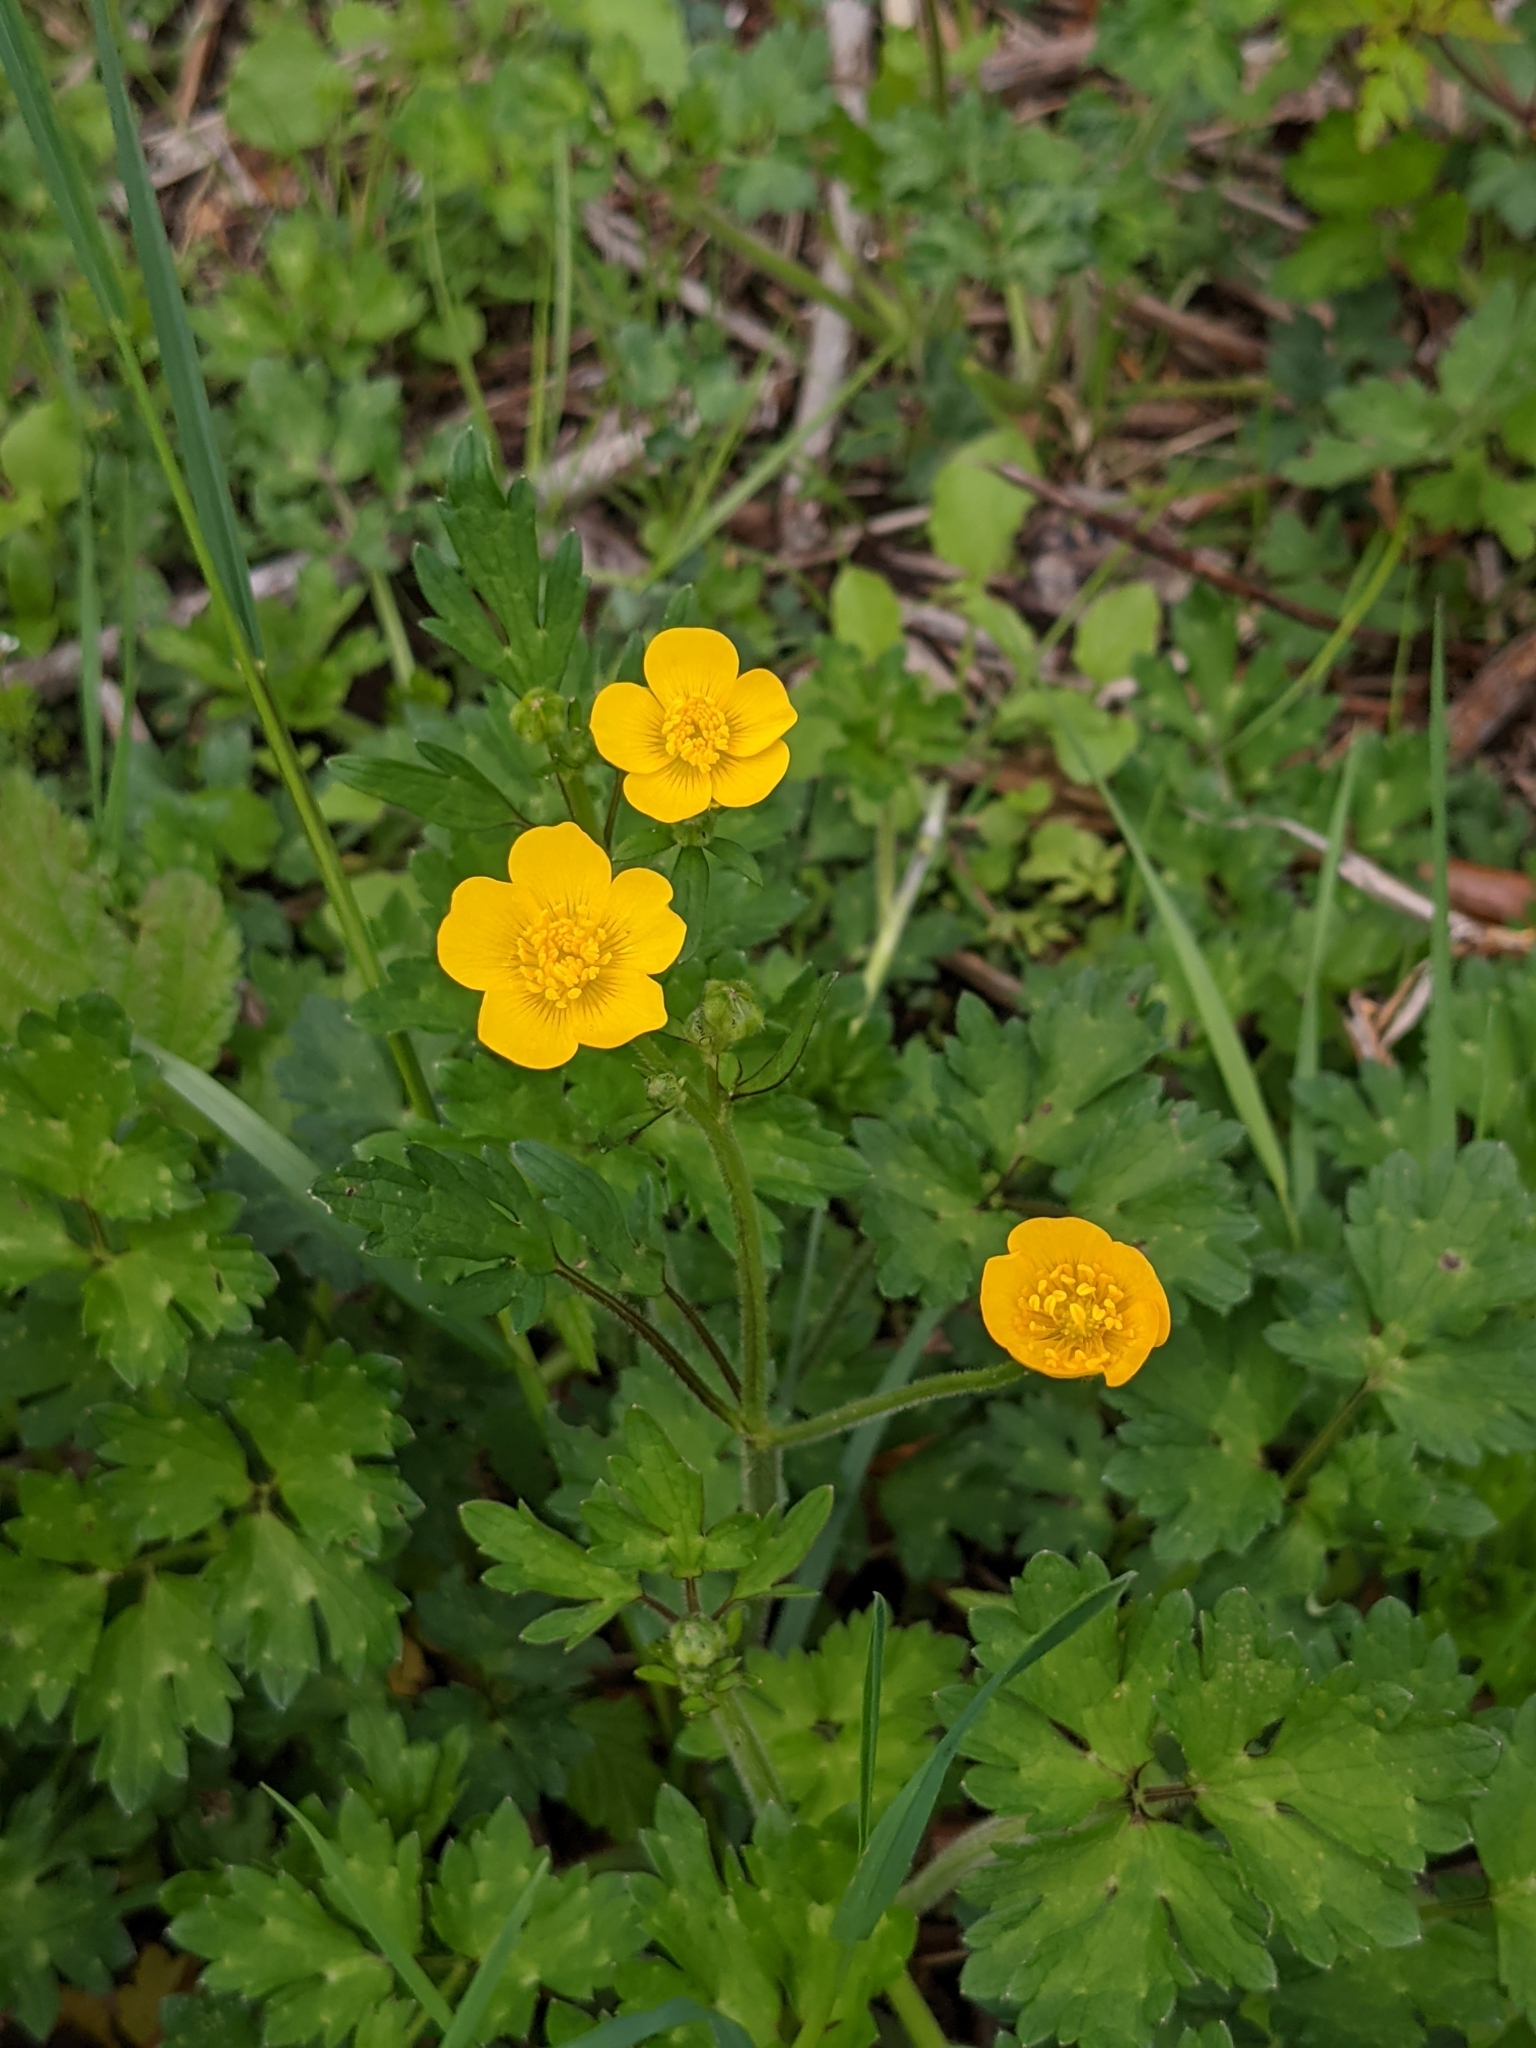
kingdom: Plantae
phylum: Tracheophyta
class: Magnoliopsida
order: Ranunculales
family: Ranunculaceae
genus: Ranunculus
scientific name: Ranunculus repens
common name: Creeping buttercup
